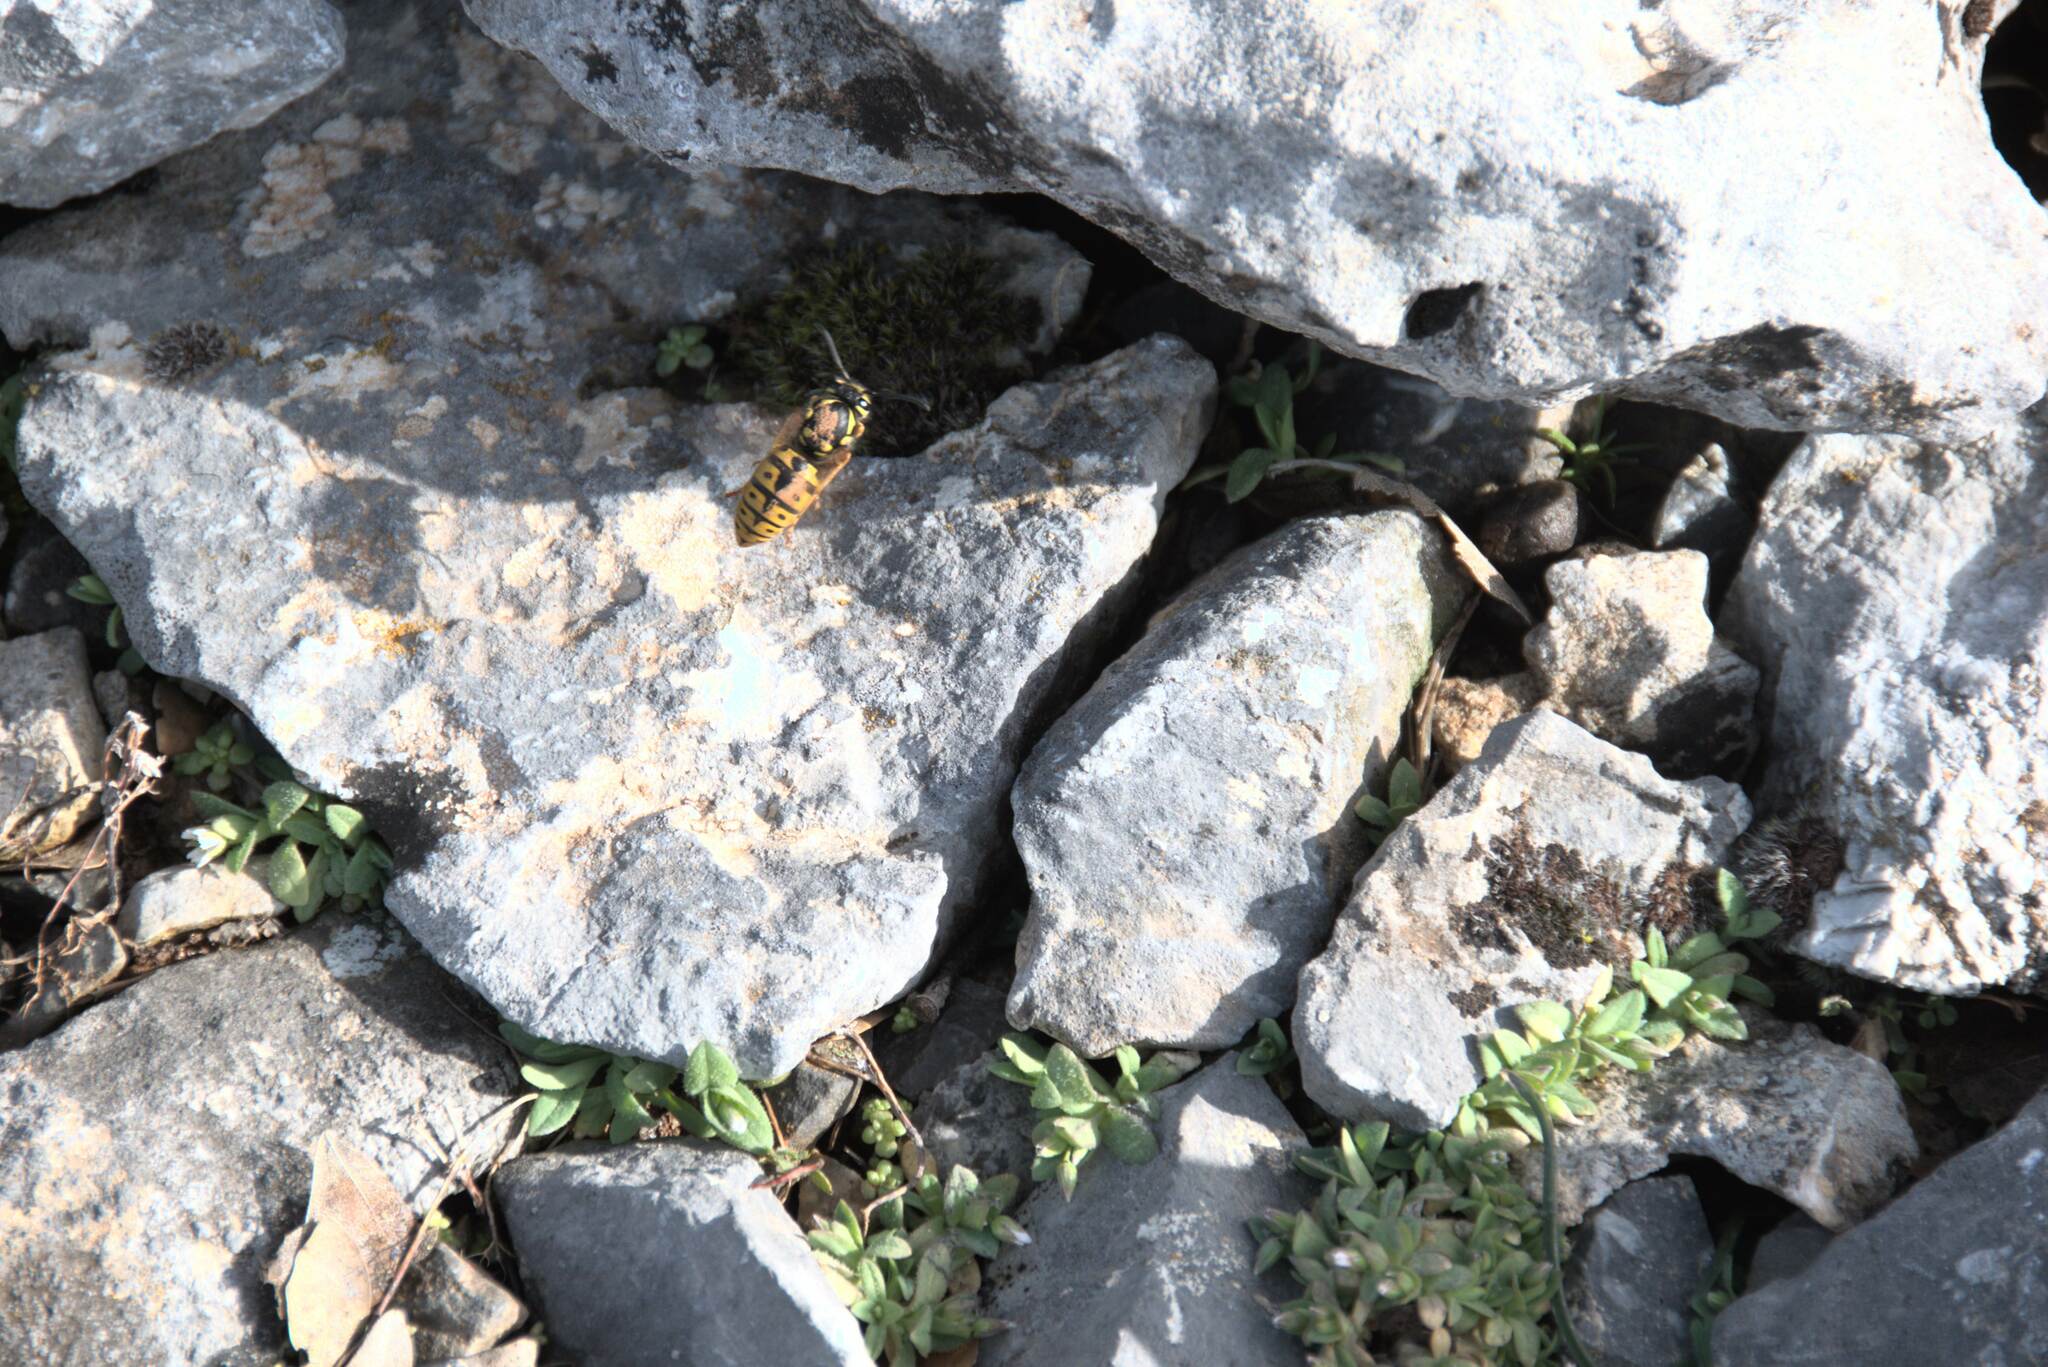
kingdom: Animalia
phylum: Arthropoda
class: Insecta
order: Hymenoptera
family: Vespidae
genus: Vespula
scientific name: Vespula germanica
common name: German wasp
